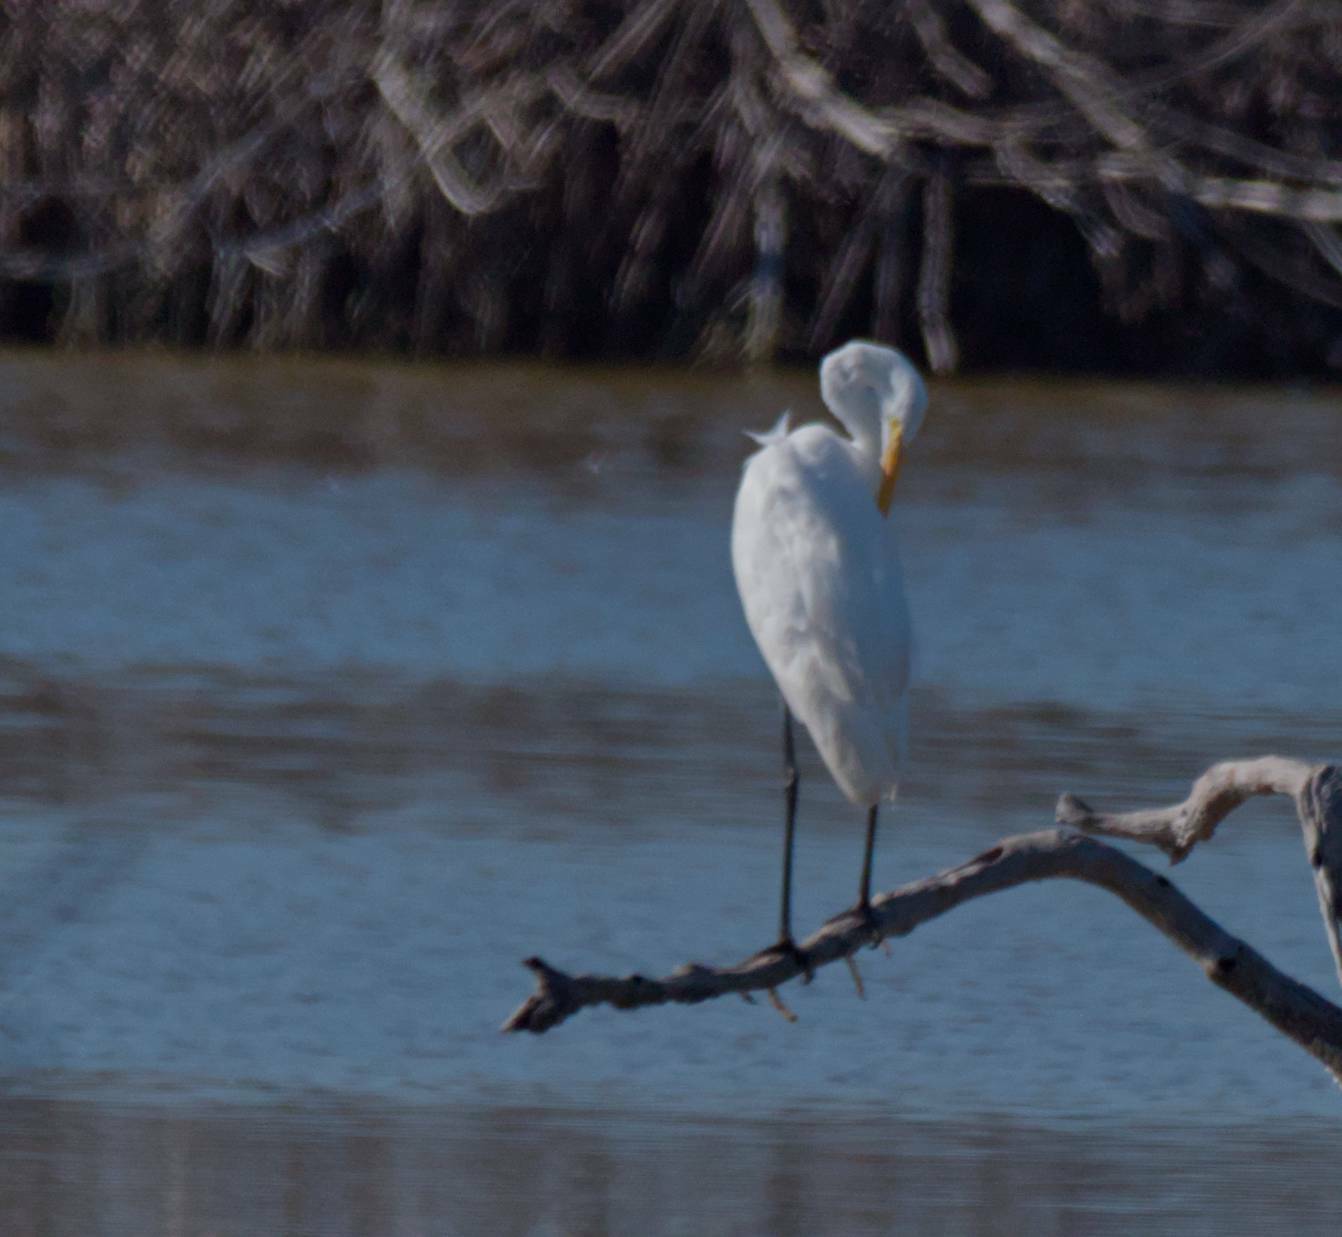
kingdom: Animalia
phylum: Chordata
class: Aves
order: Pelecaniformes
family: Ardeidae
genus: Ardea
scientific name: Ardea alba
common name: Great egret
